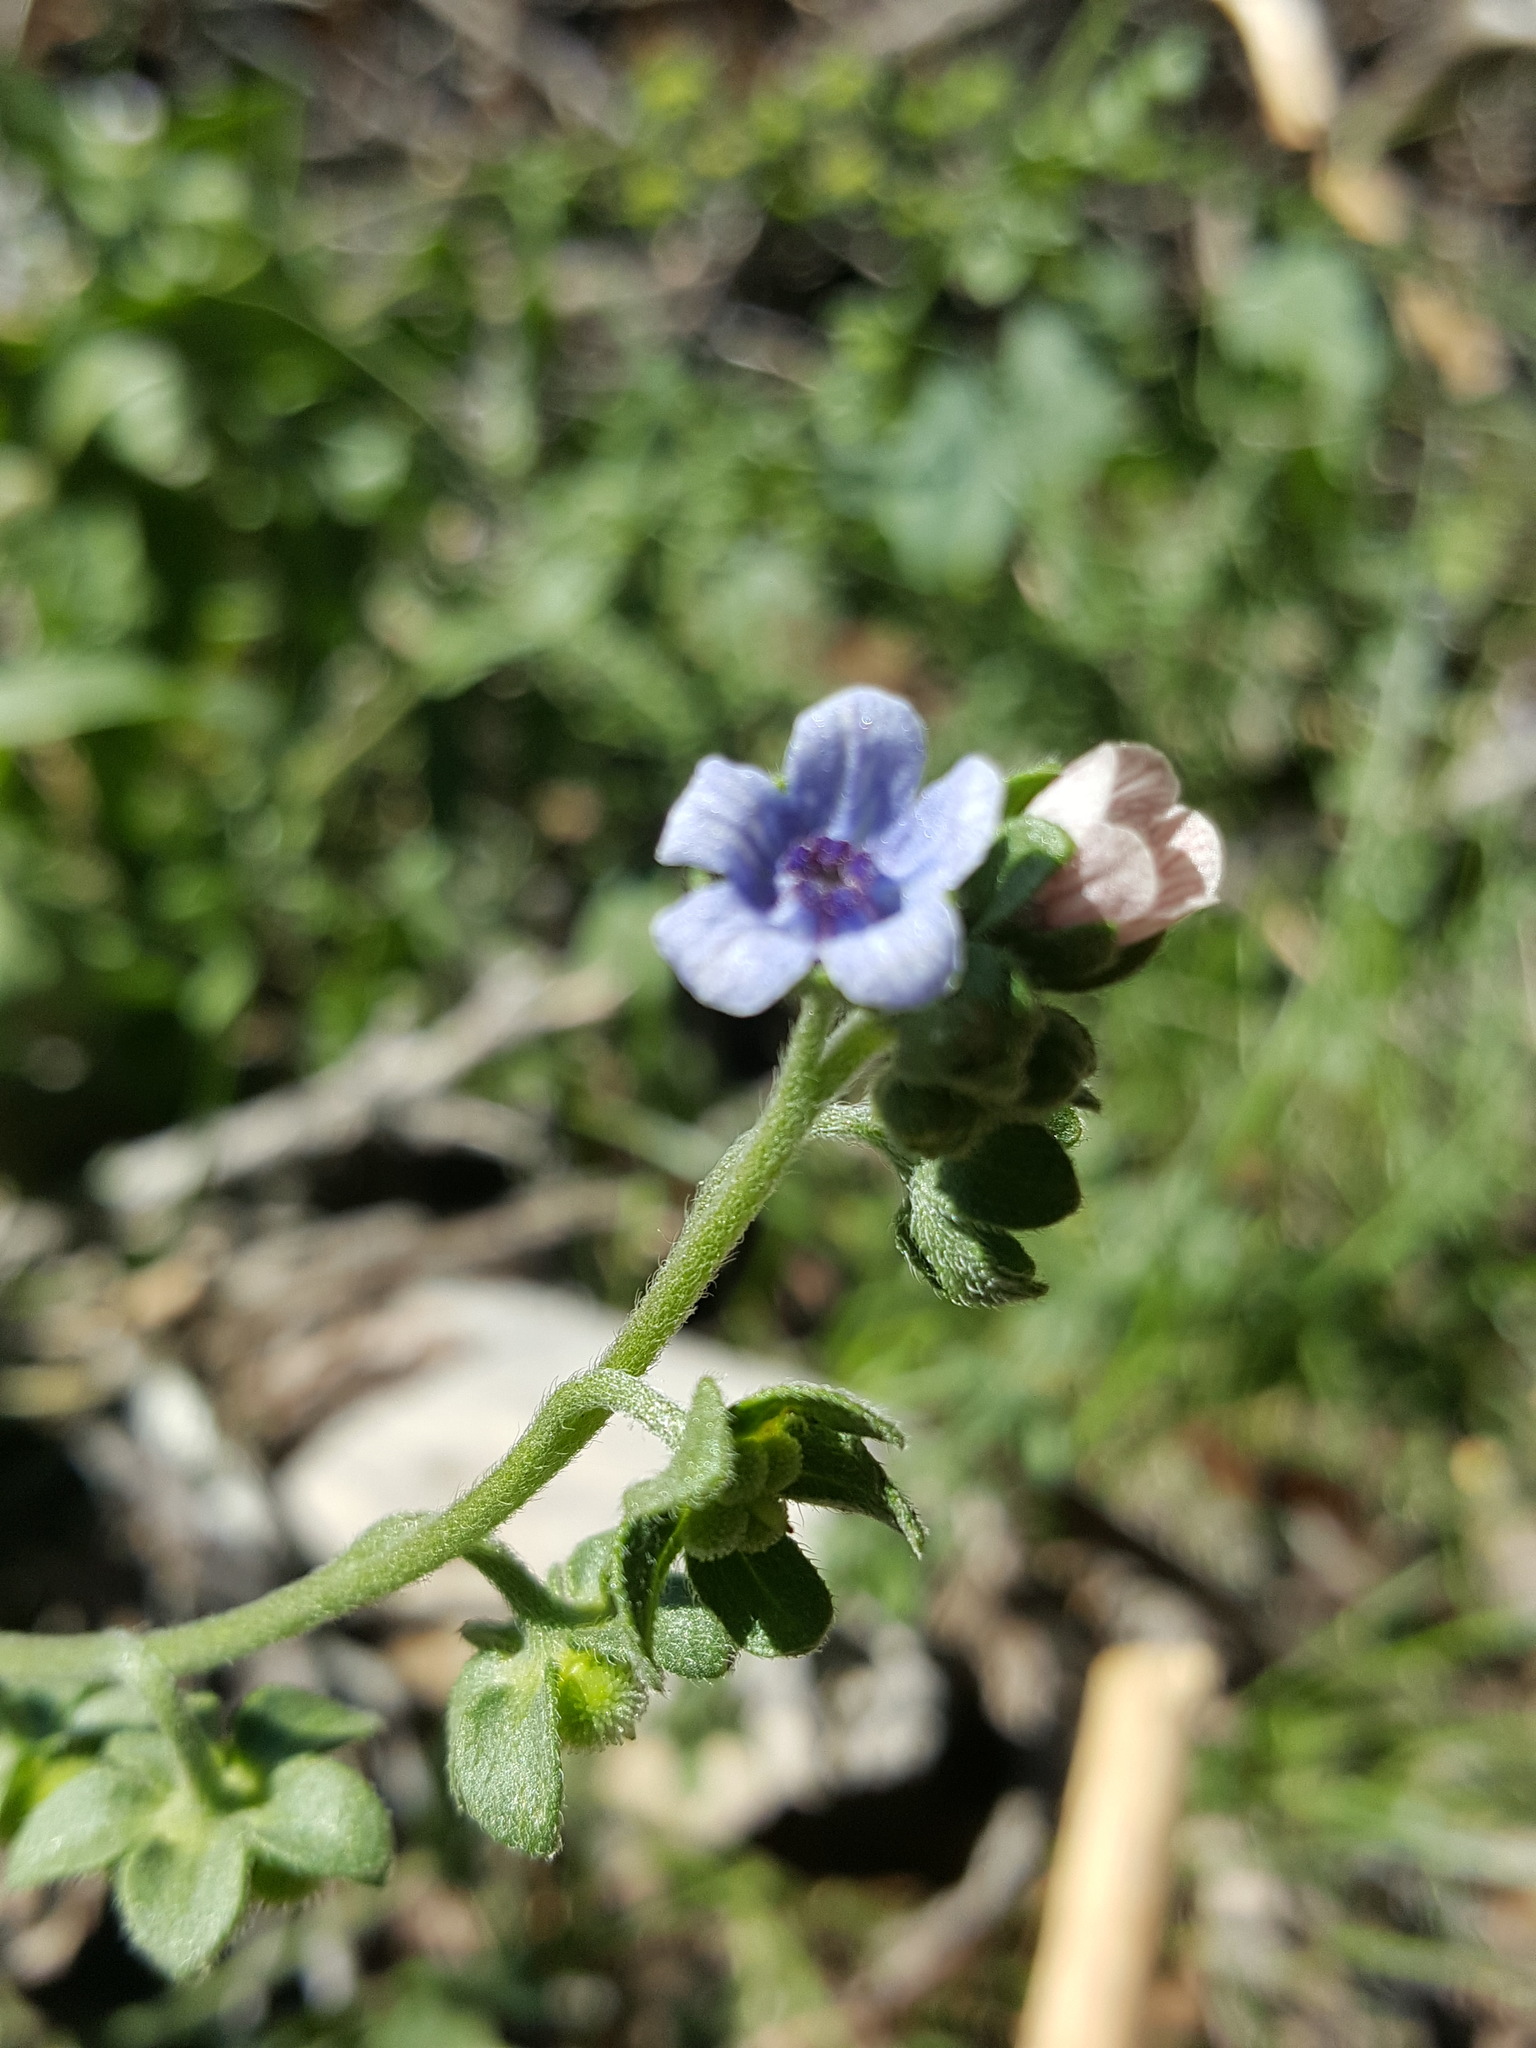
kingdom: Plantae
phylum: Tracheophyta
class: Magnoliopsida
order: Boraginales
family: Boraginaceae
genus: Cynoglossum
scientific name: Cynoglossum creticum
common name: Blue hound's tongue
